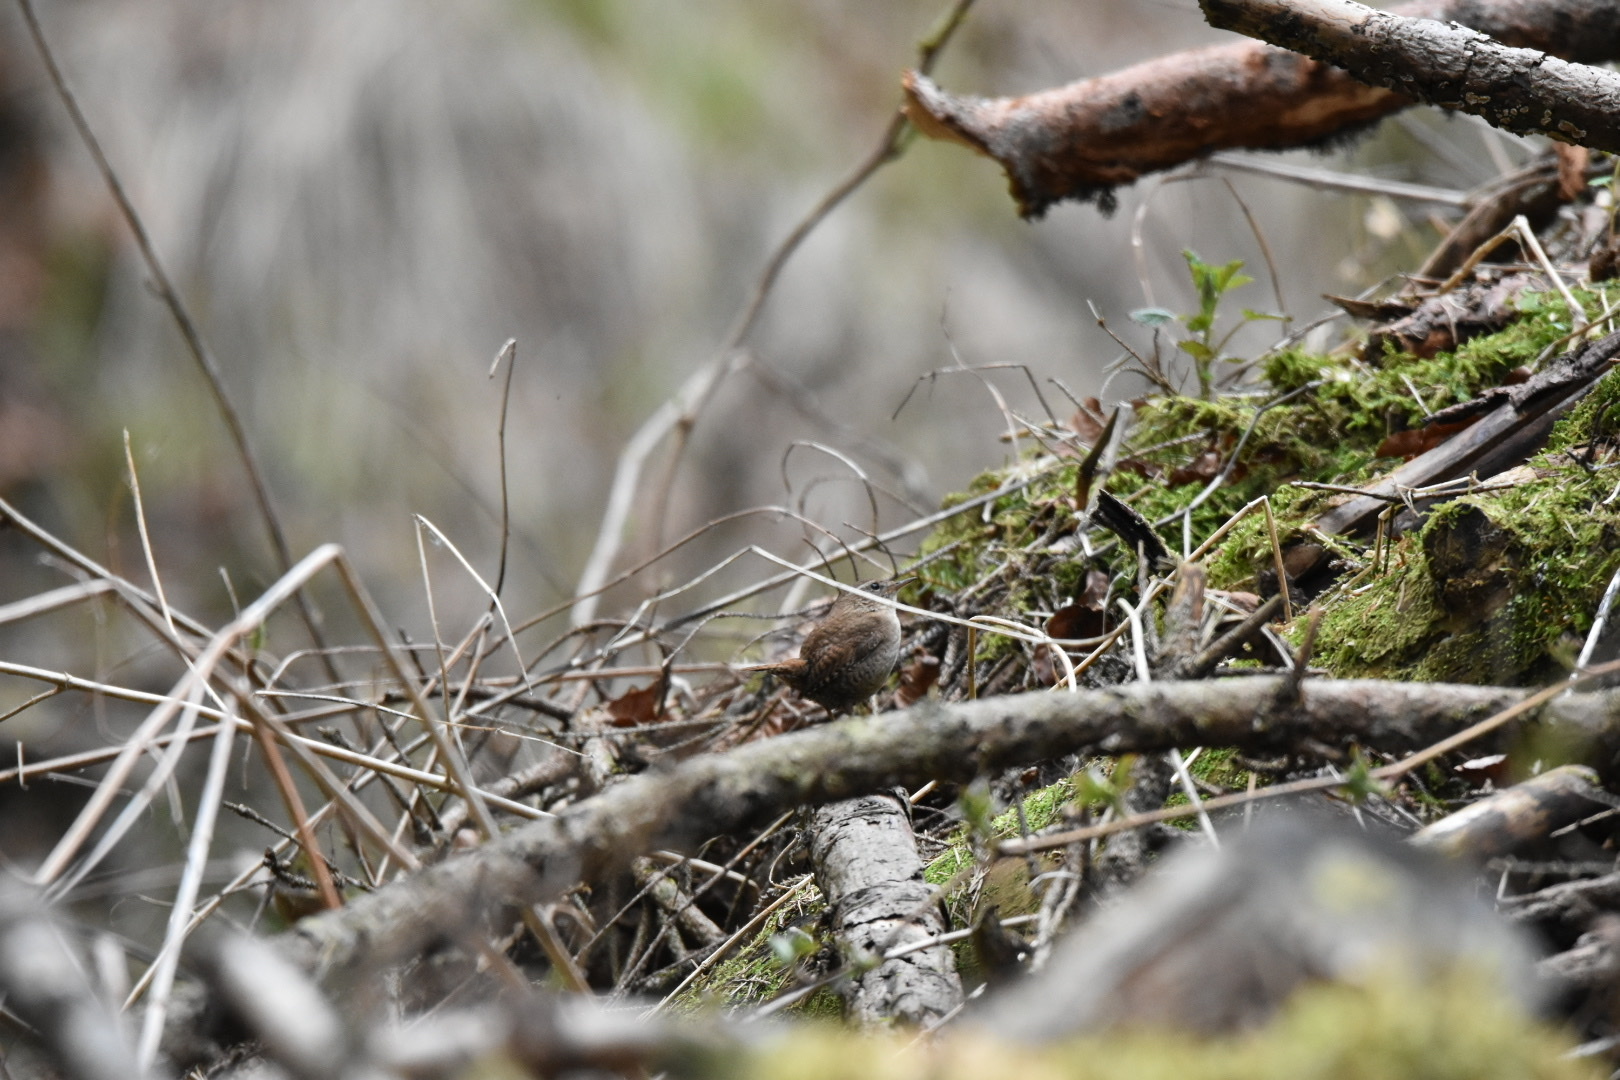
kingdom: Animalia
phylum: Chordata
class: Aves
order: Passeriformes
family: Troglodytidae
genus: Troglodytes
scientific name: Troglodytes troglodytes
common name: Eurasian wren
